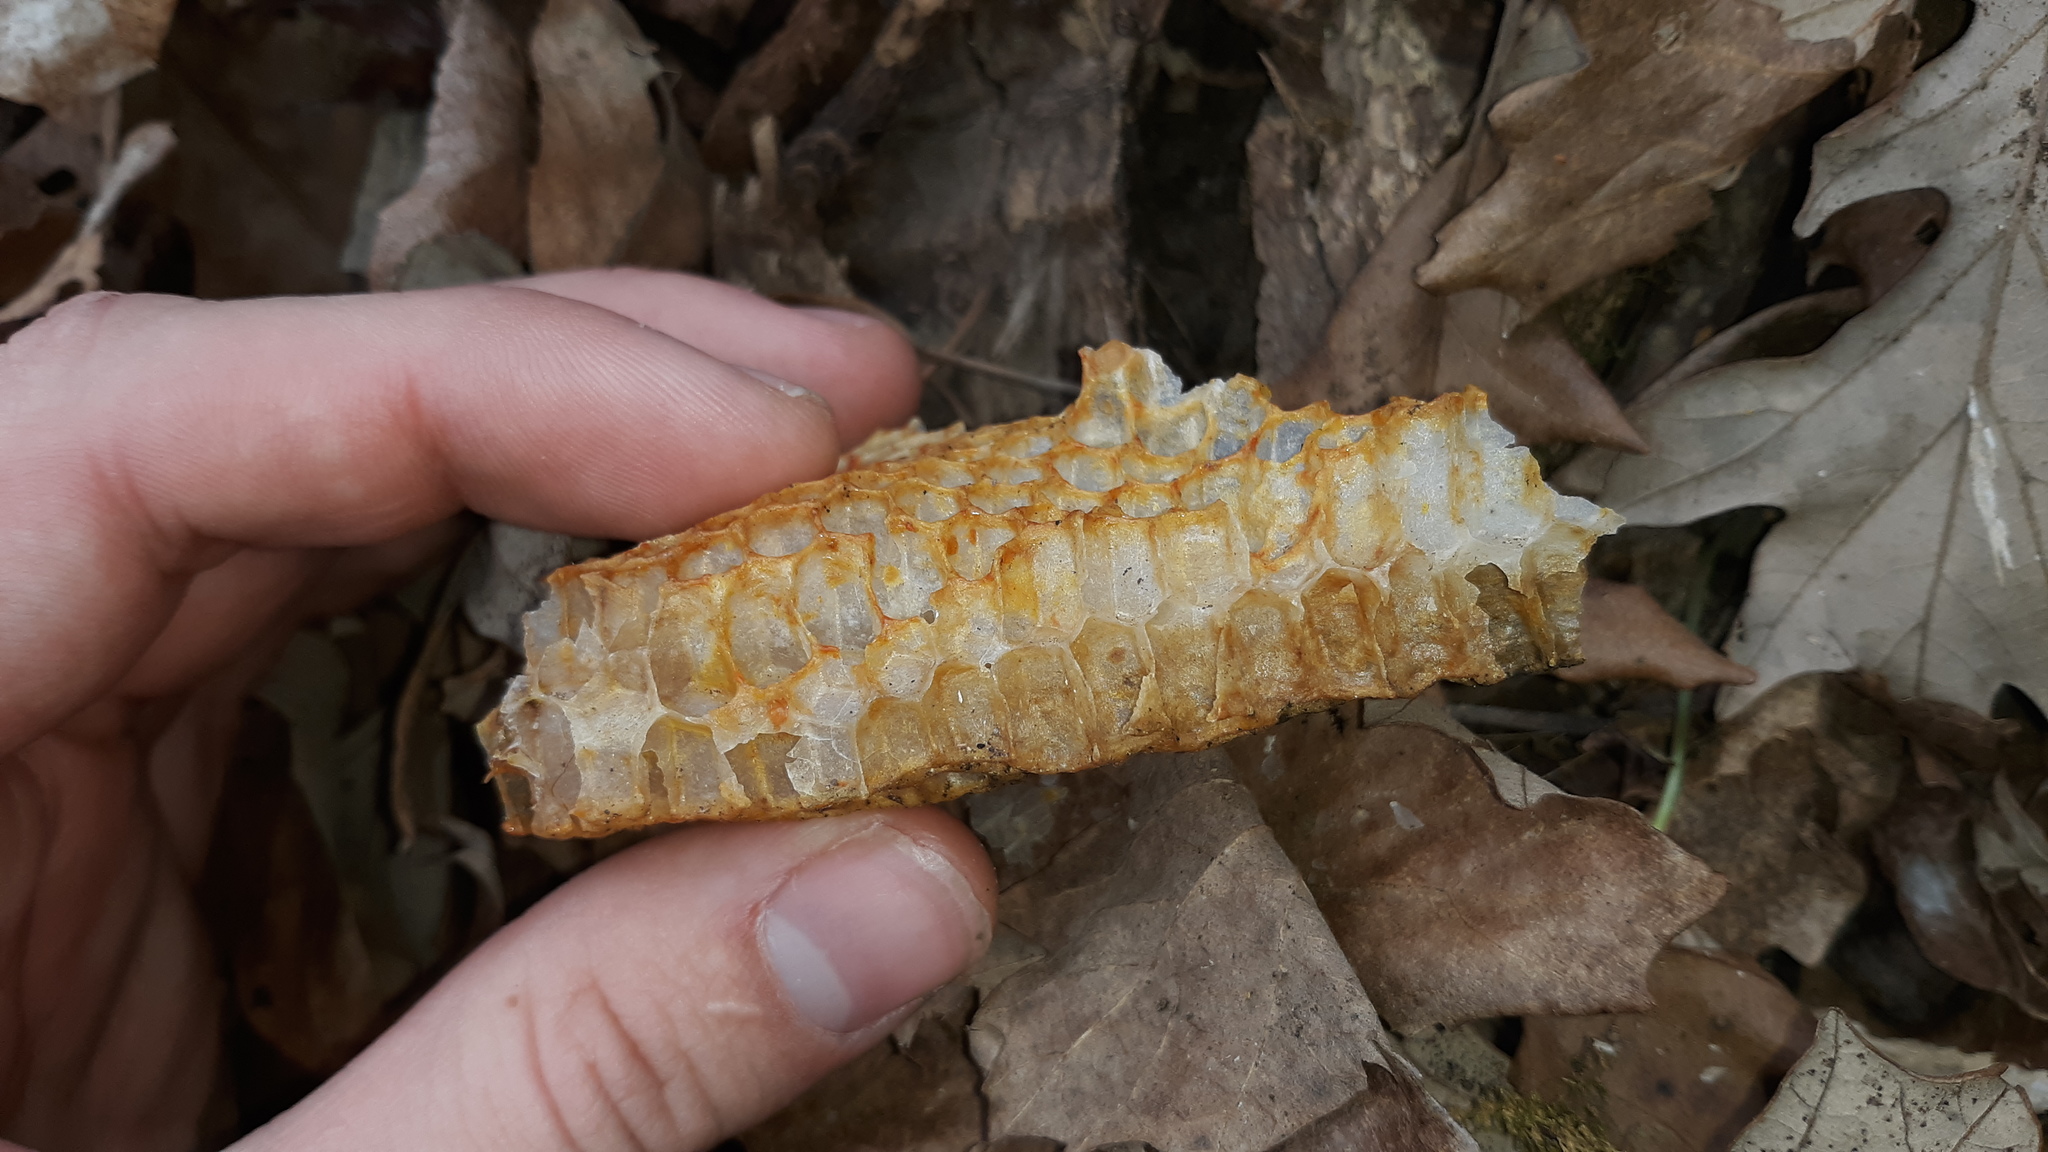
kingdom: Animalia
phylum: Arthropoda
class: Insecta
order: Hymenoptera
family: Apidae
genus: Apis
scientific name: Apis mellifera
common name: Honey bee
